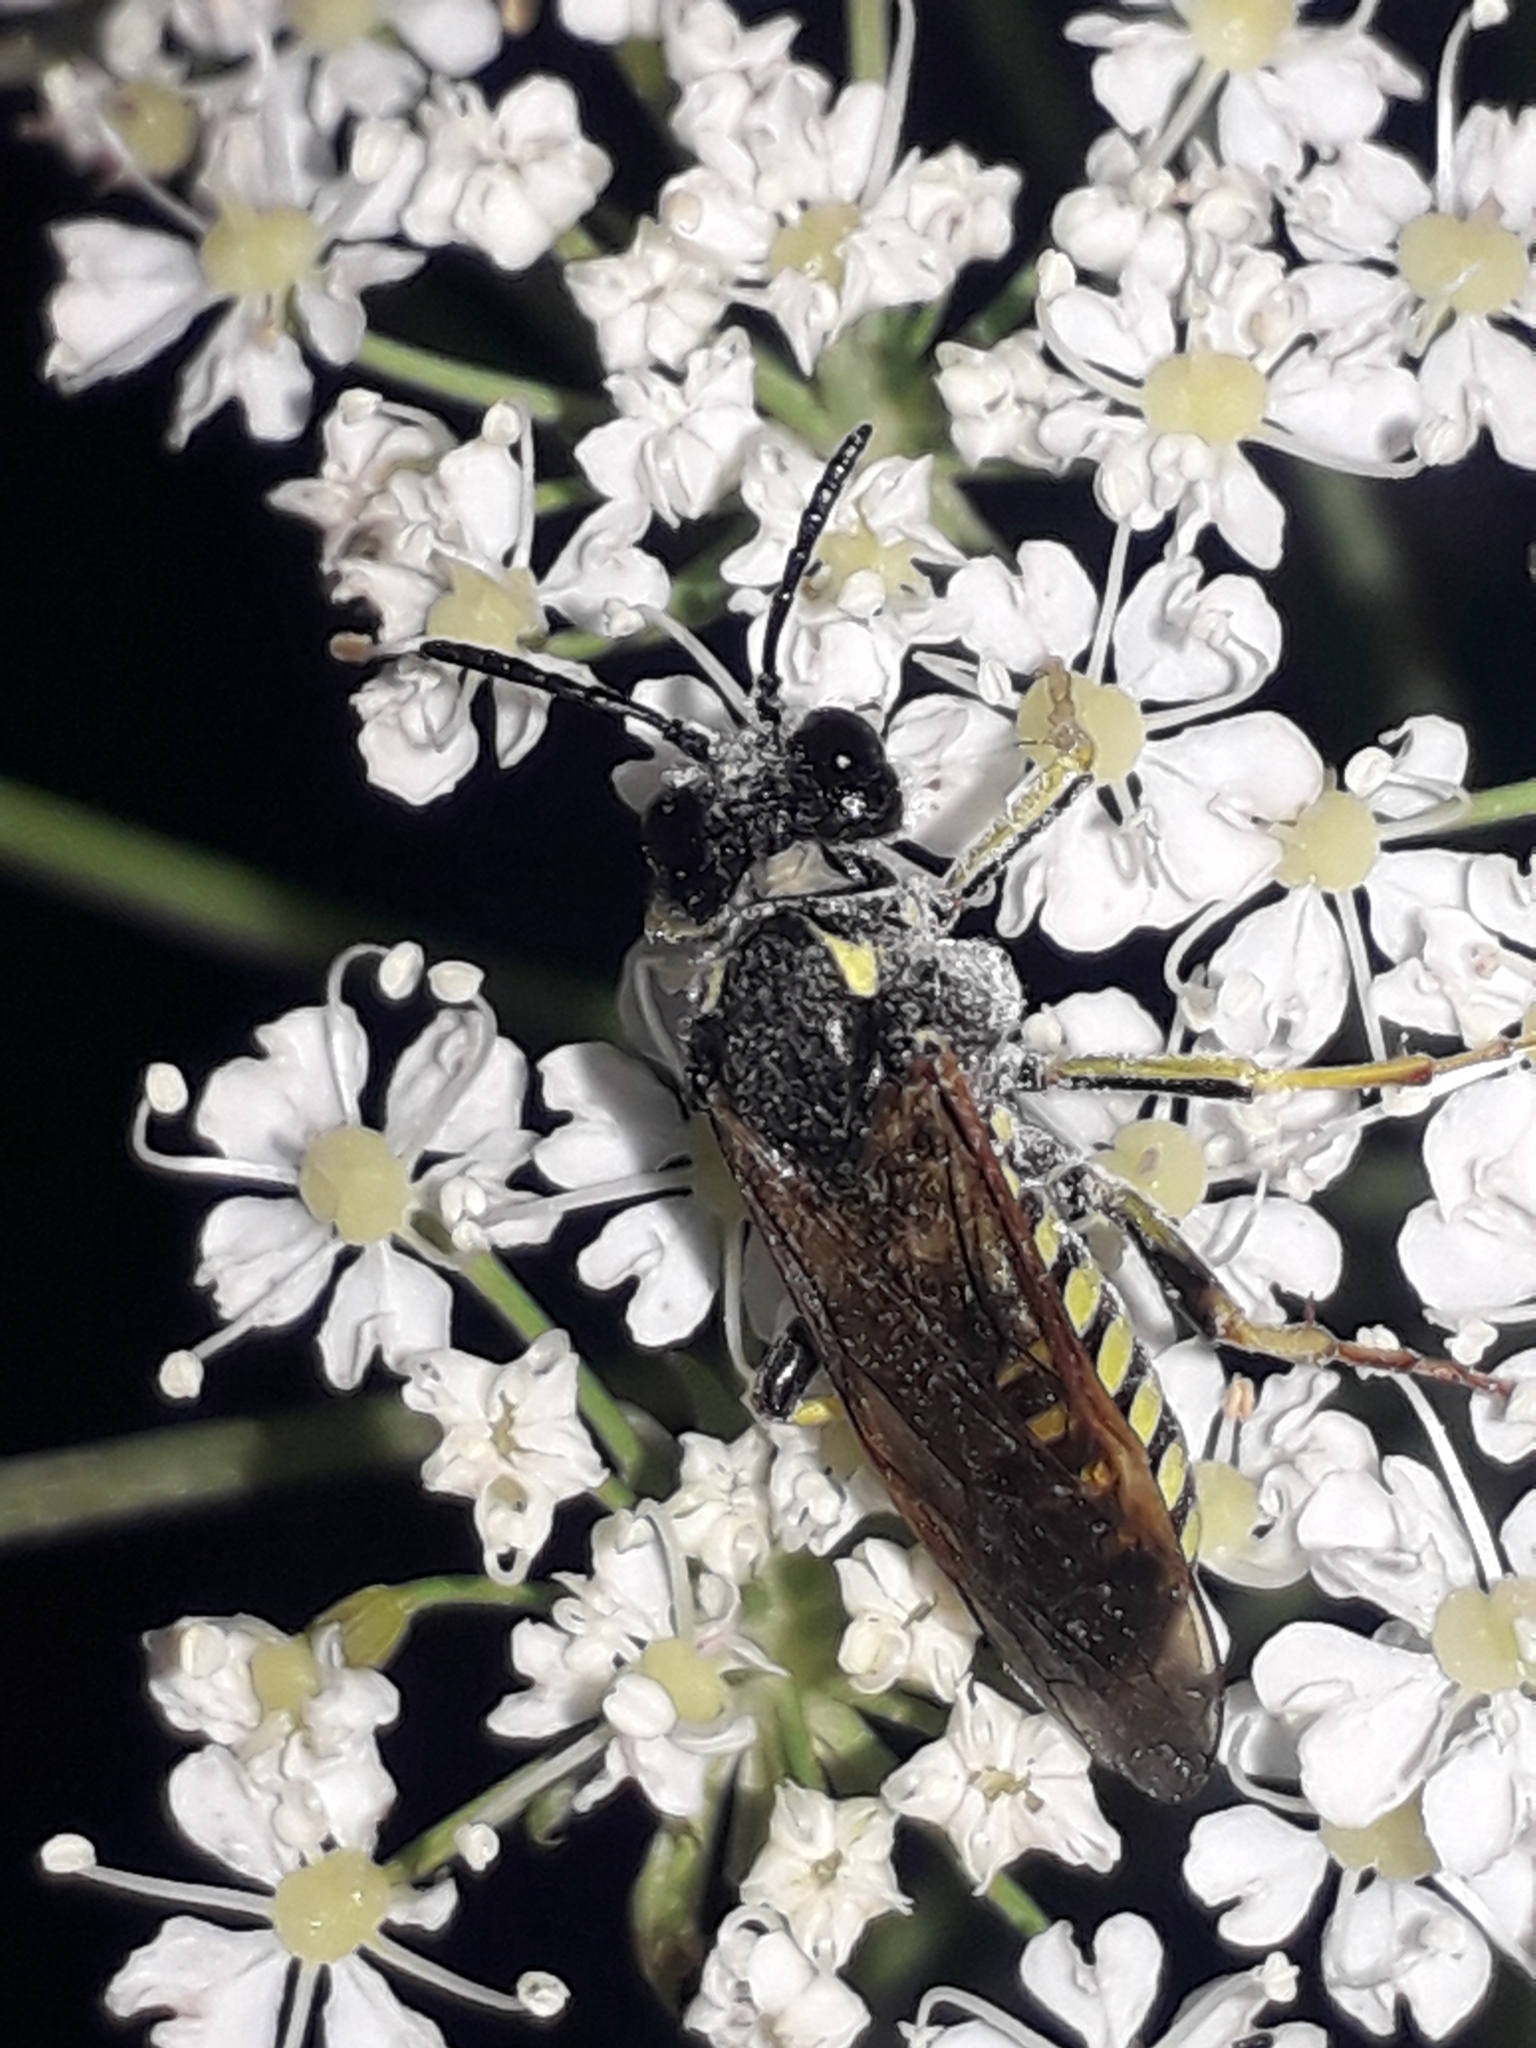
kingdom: Animalia
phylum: Arthropoda
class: Insecta
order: Hymenoptera
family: Tenthredinidae
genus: Tenthredo
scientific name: Tenthredo algoviensis
